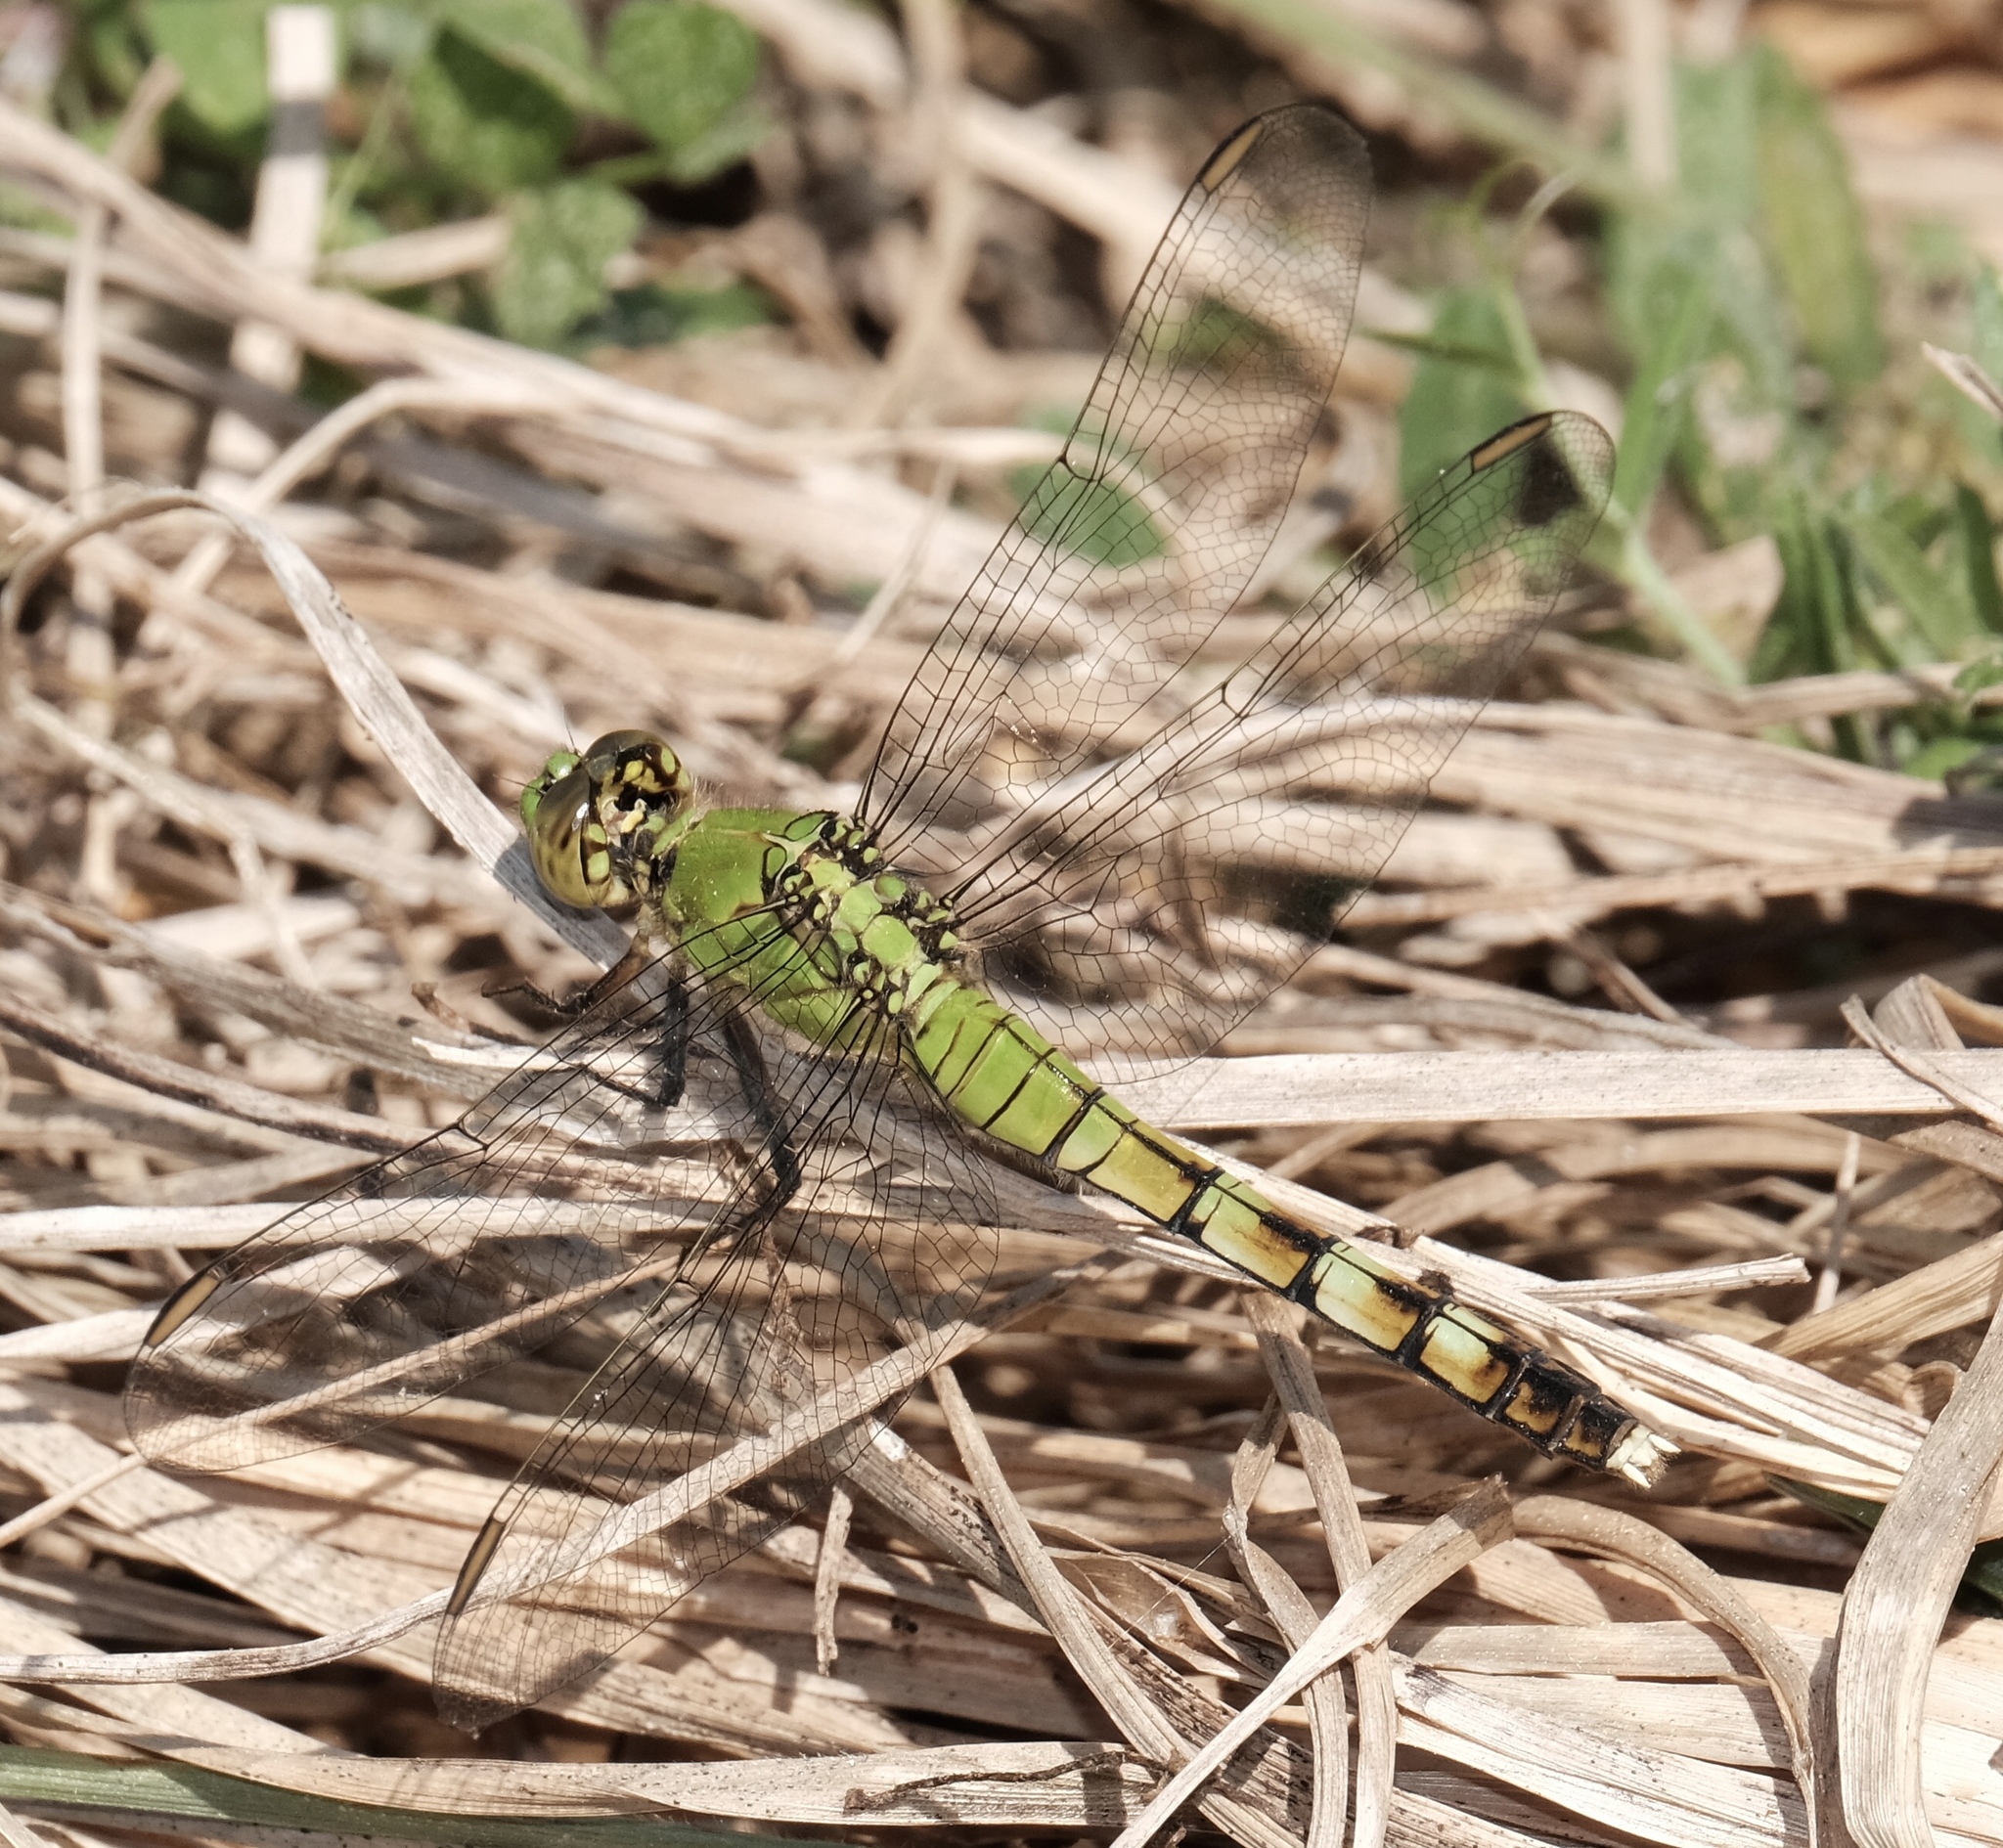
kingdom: Animalia
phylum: Arthropoda
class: Insecta
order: Odonata
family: Libellulidae
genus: Erythemis
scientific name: Erythemis simplicicollis
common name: Eastern pondhawk
